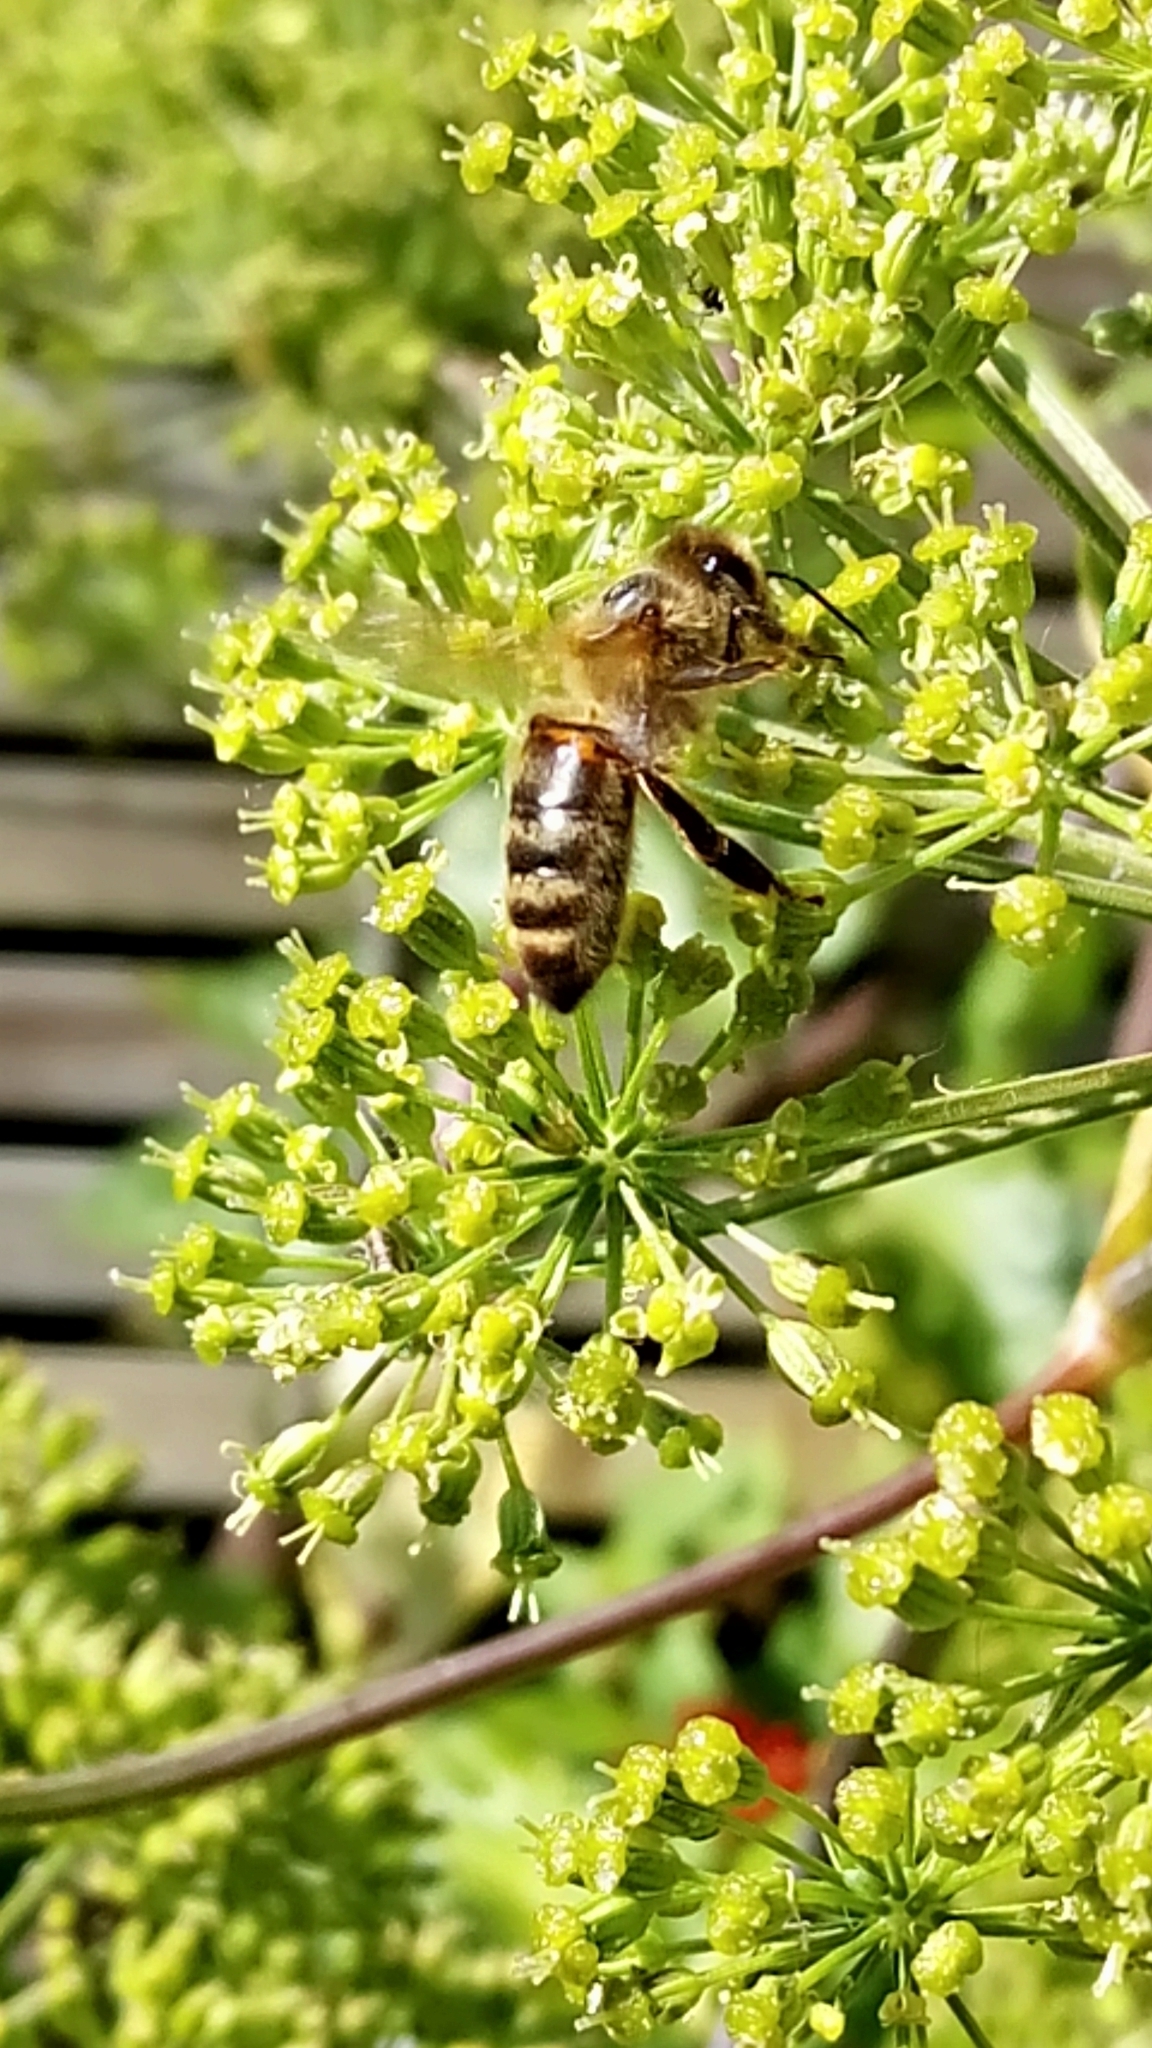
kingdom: Animalia
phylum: Arthropoda
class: Insecta
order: Hymenoptera
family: Apidae
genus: Apis
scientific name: Apis mellifera
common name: Honey bee
